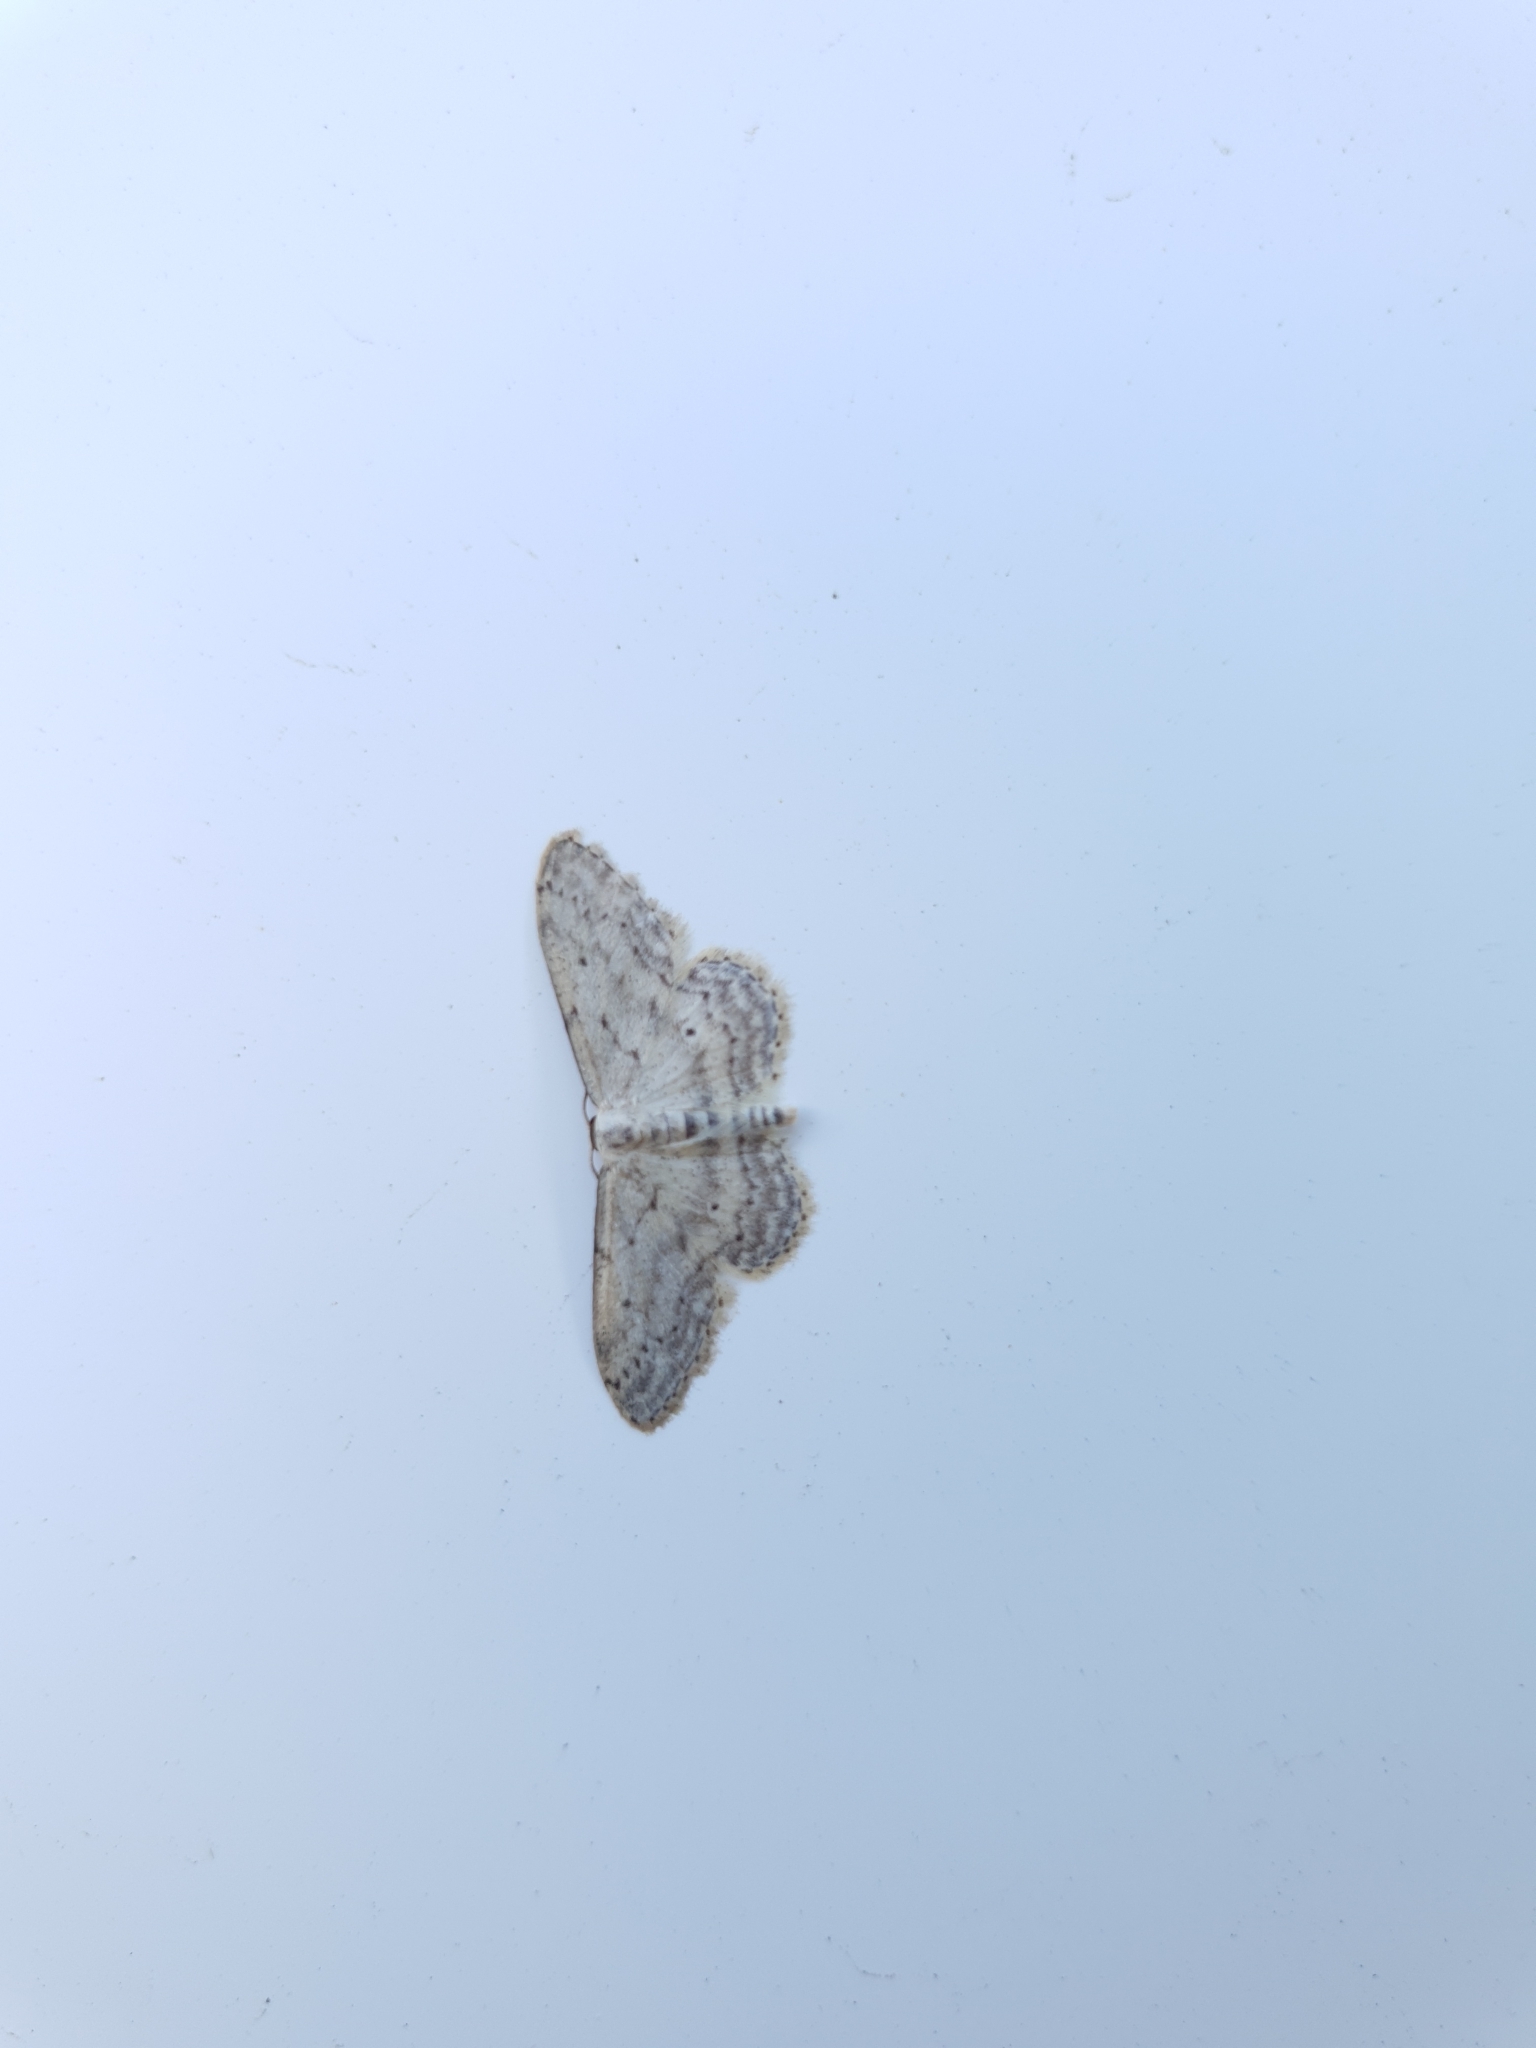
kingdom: Animalia
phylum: Arthropoda
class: Insecta
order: Lepidoptera
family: Geometridae
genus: Idaea
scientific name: Idaea seriata
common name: Small dusty wave
